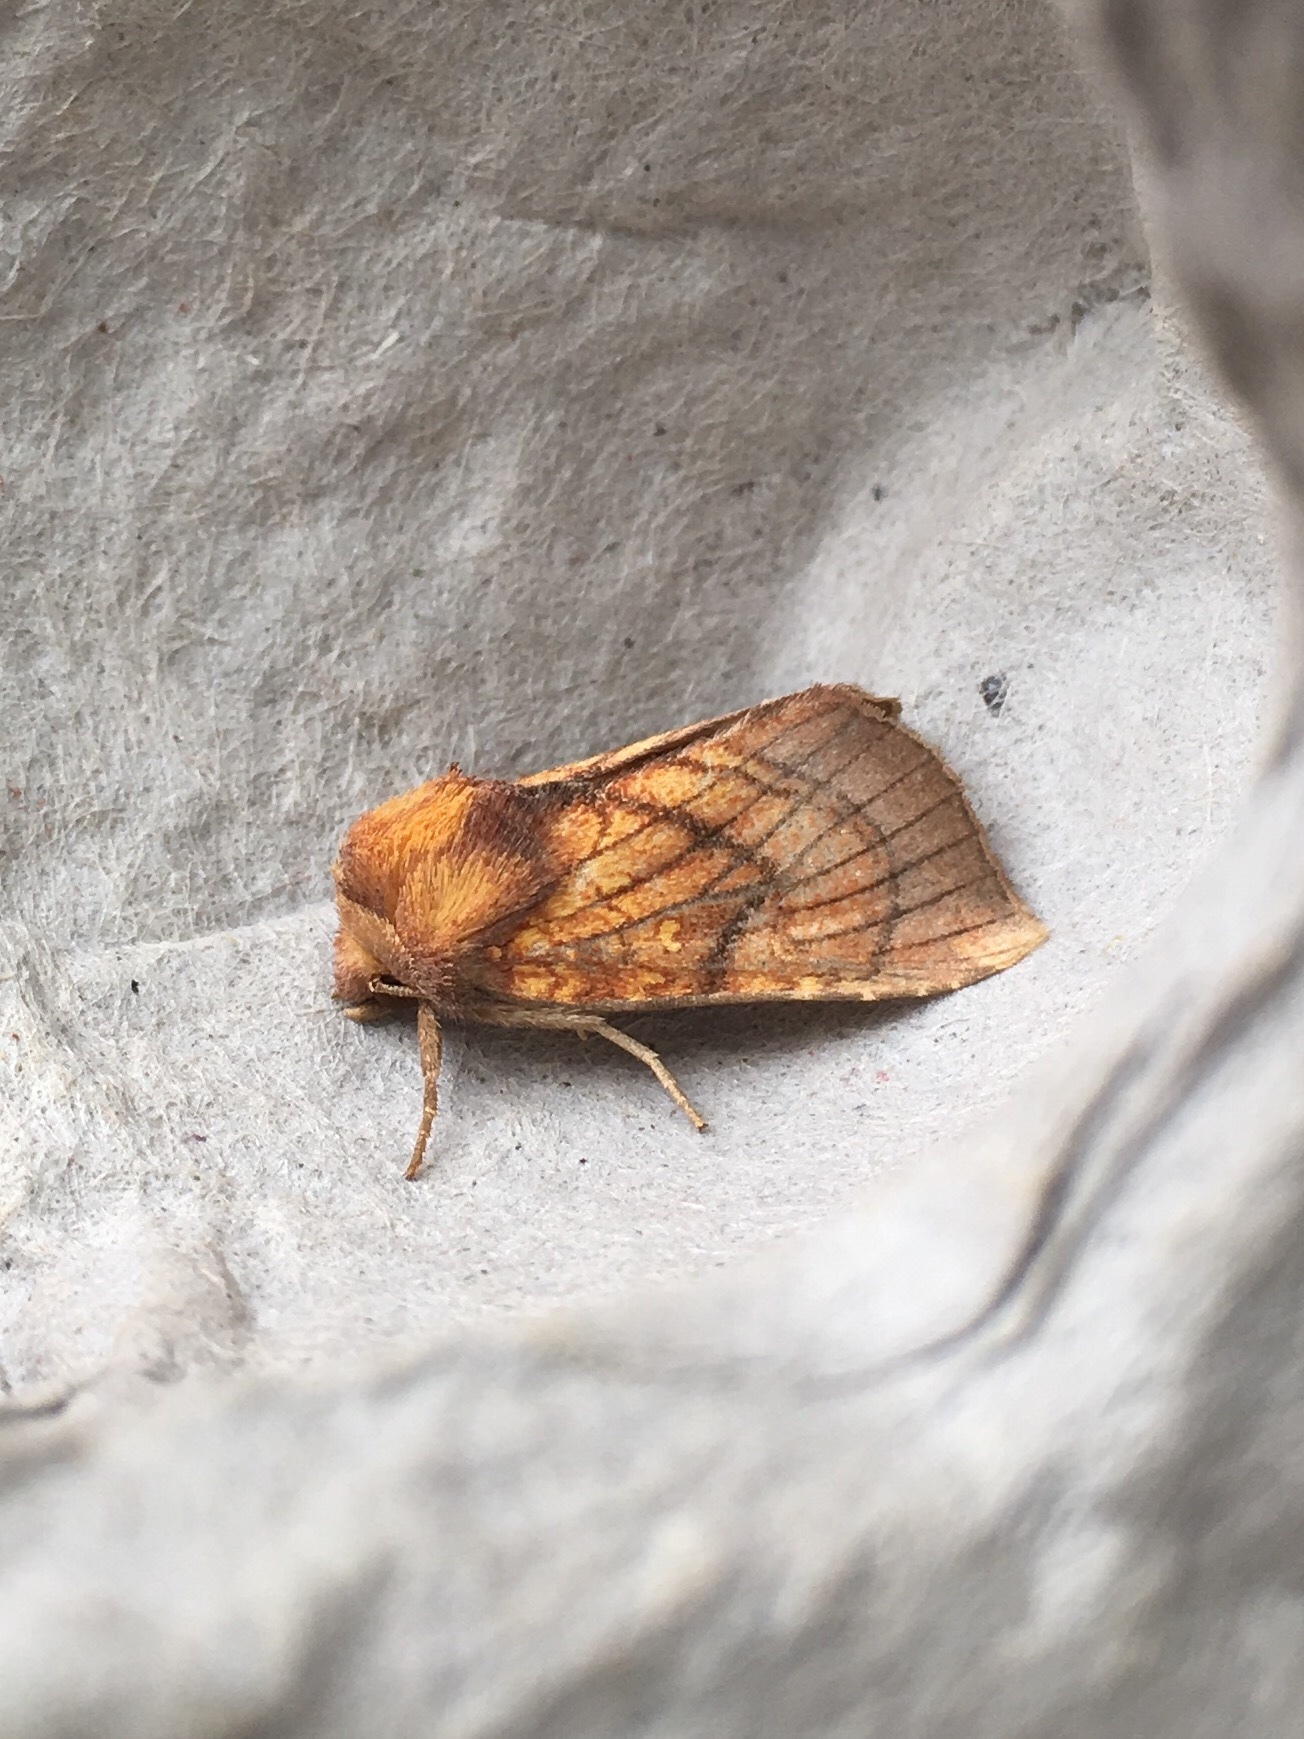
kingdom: Animalia
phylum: Arthropoda
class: Insecta
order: Lepidoptera
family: Noctuidae
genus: Papaipema
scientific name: Papaipema inquaesita
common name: Sensitive fern borer moth
